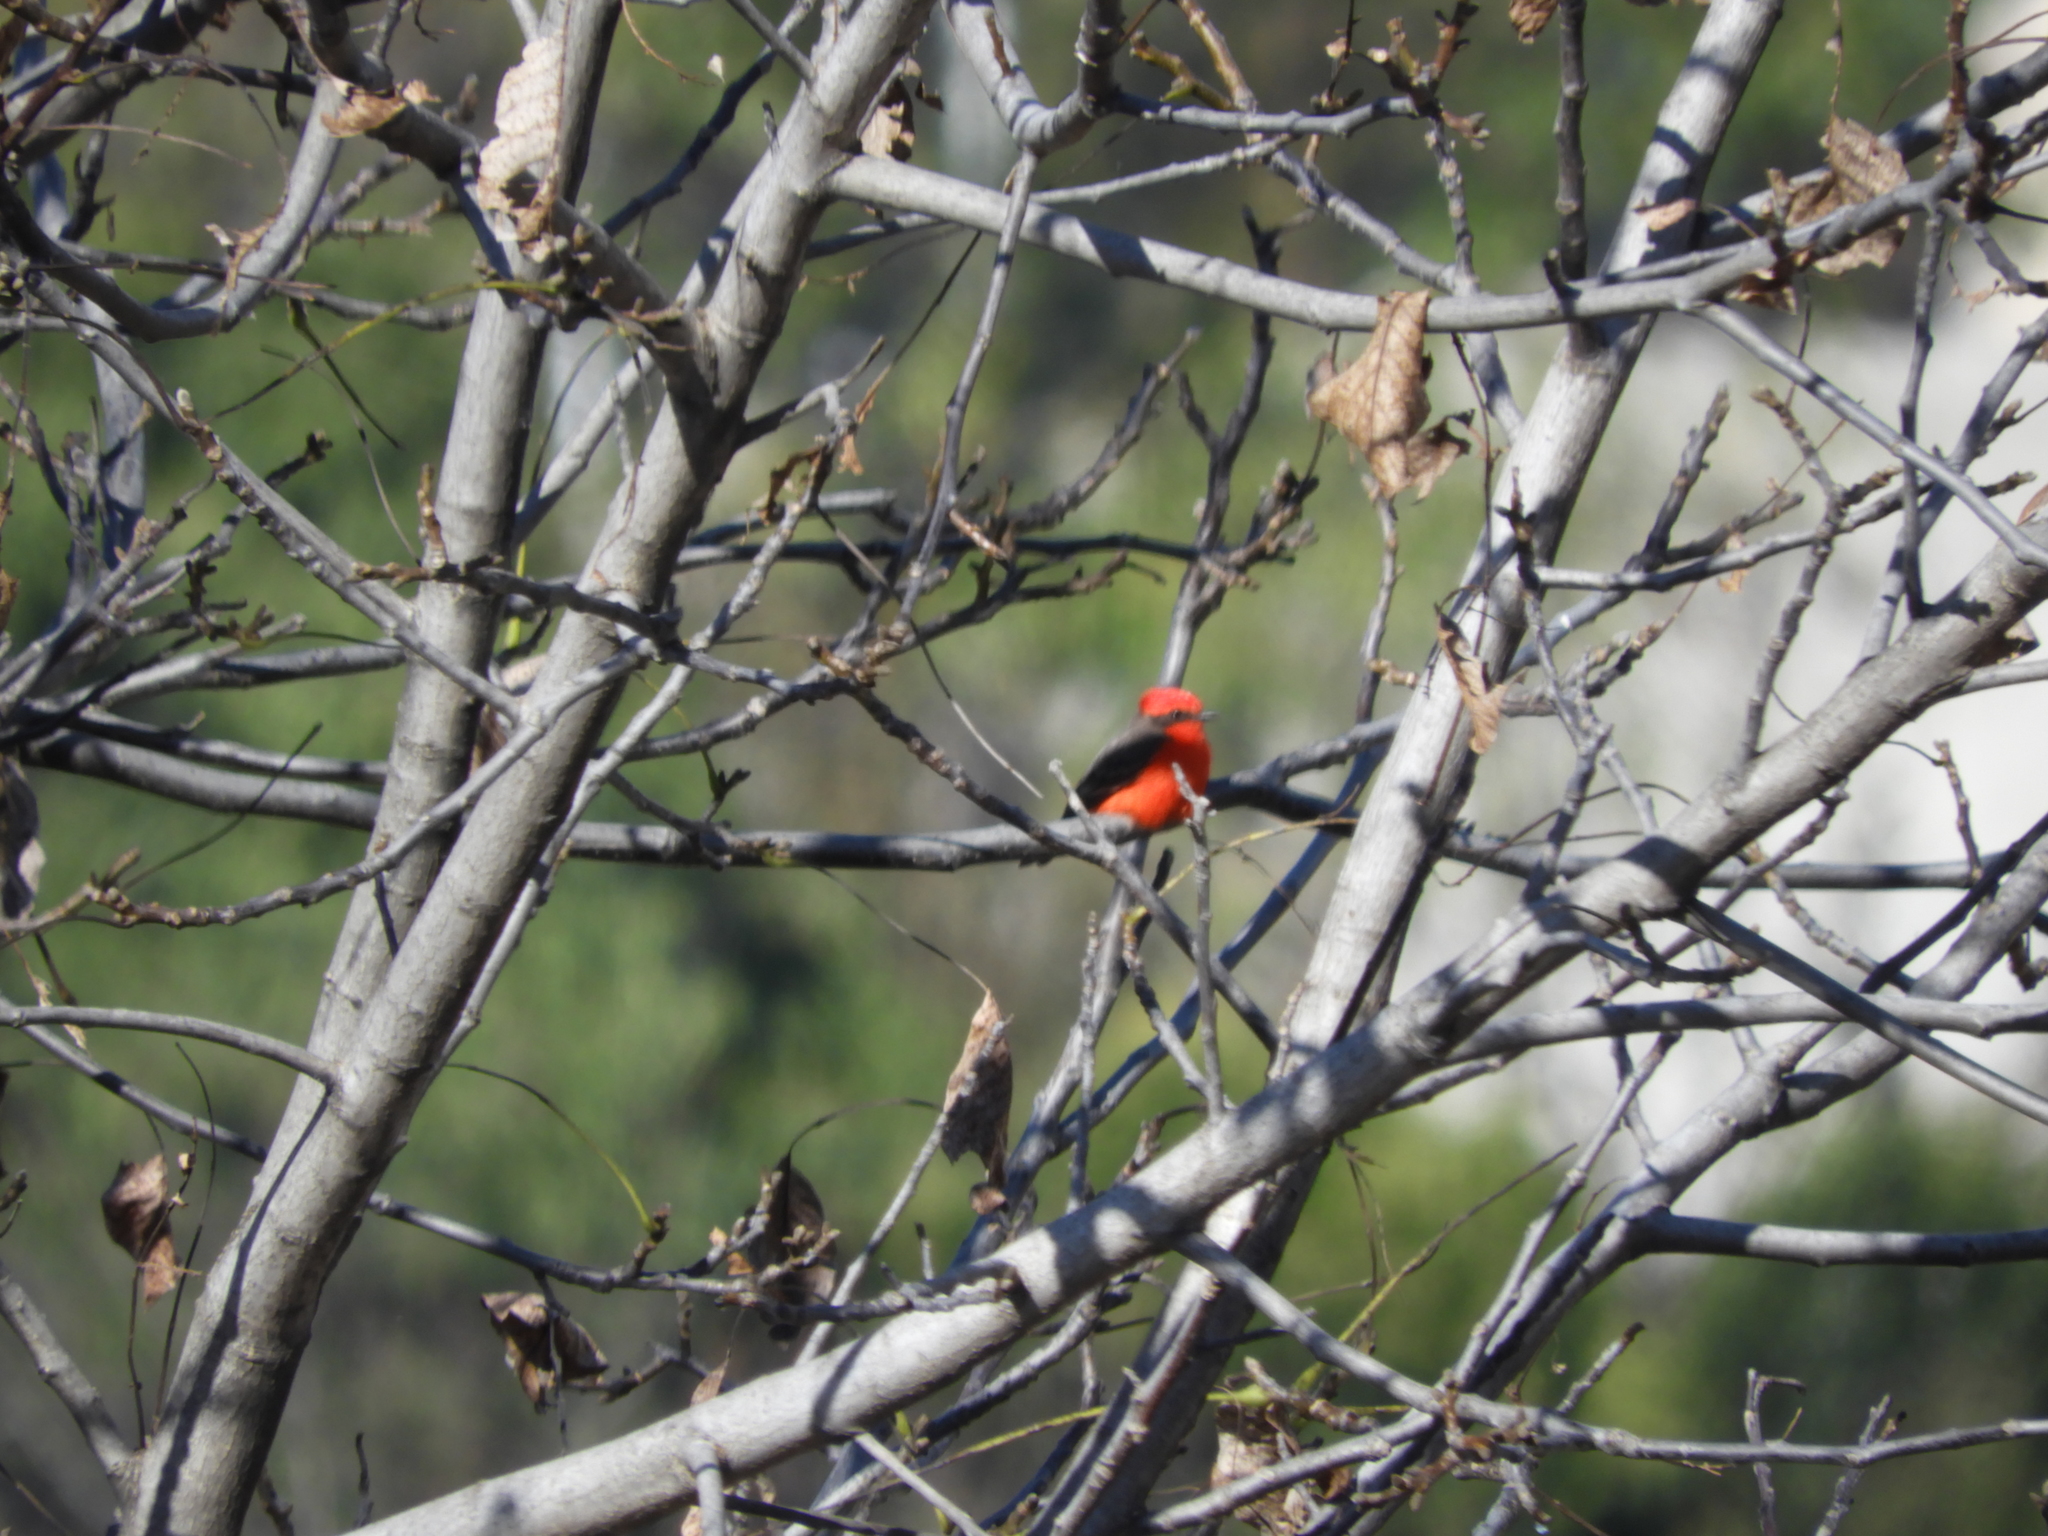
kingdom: Animalia
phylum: Chordata
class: Aves
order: Passeriformes
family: Tyrannidae
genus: Pyrocephalus
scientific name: Pyrocephalus rubinus
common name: Vermilion flycatcher
